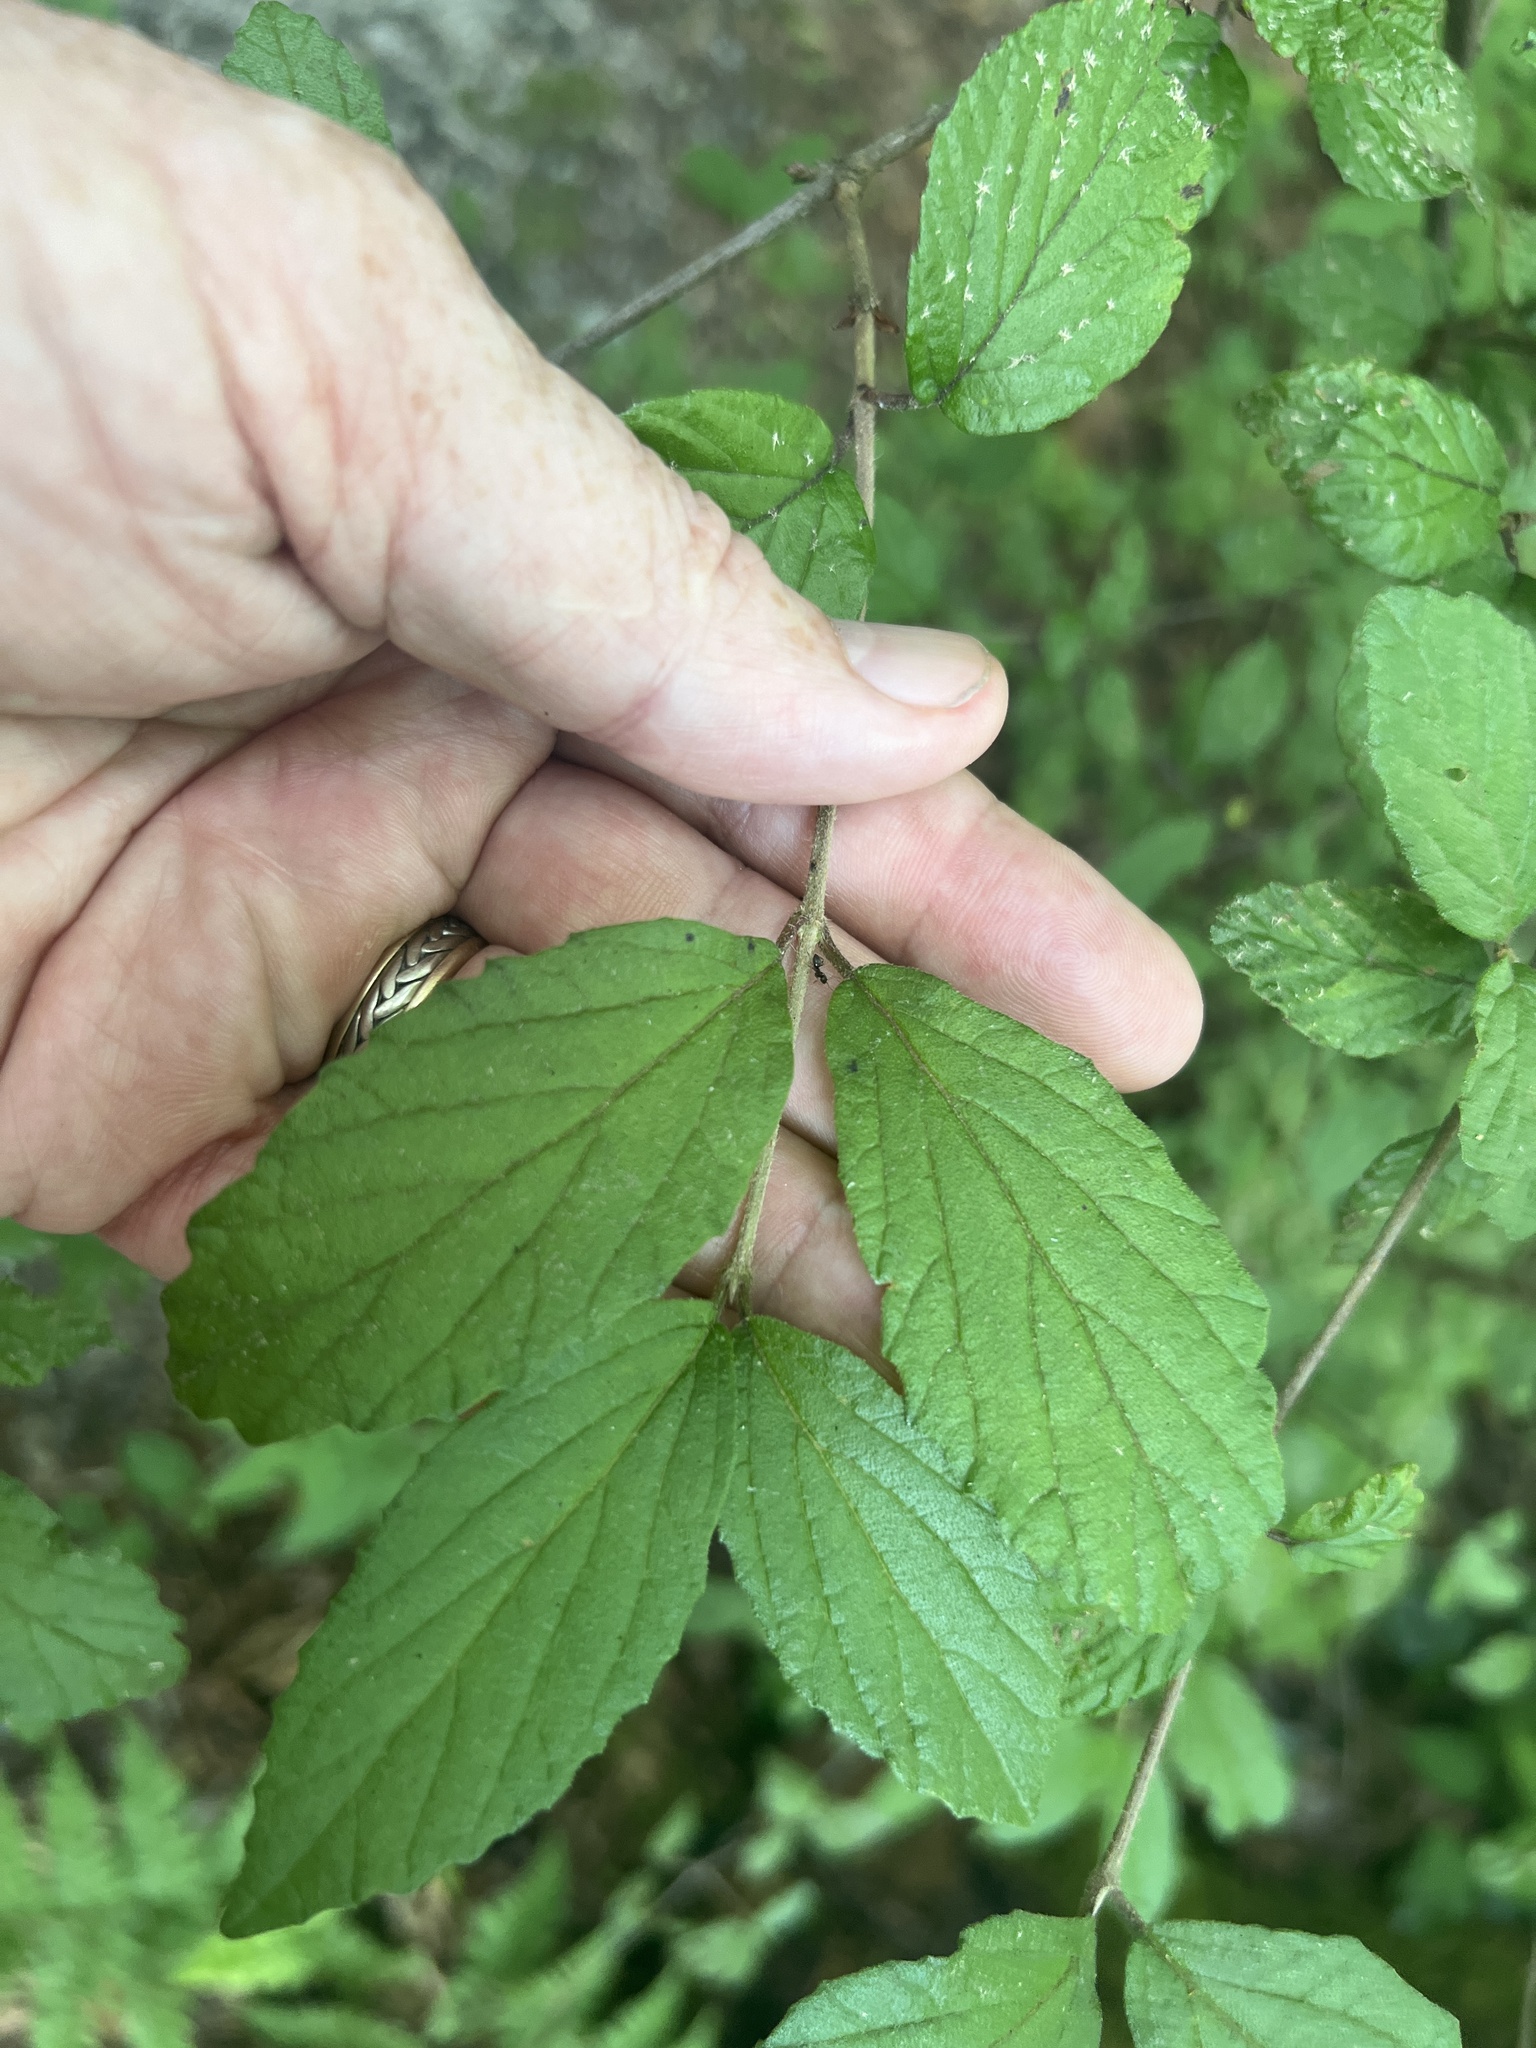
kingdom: Plantae
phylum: Tracheophyta
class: Magnoliopsida
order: Dipsacales
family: Viburnaceae
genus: Viburnum
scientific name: Viburnum plicatum
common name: Japanese snowball
